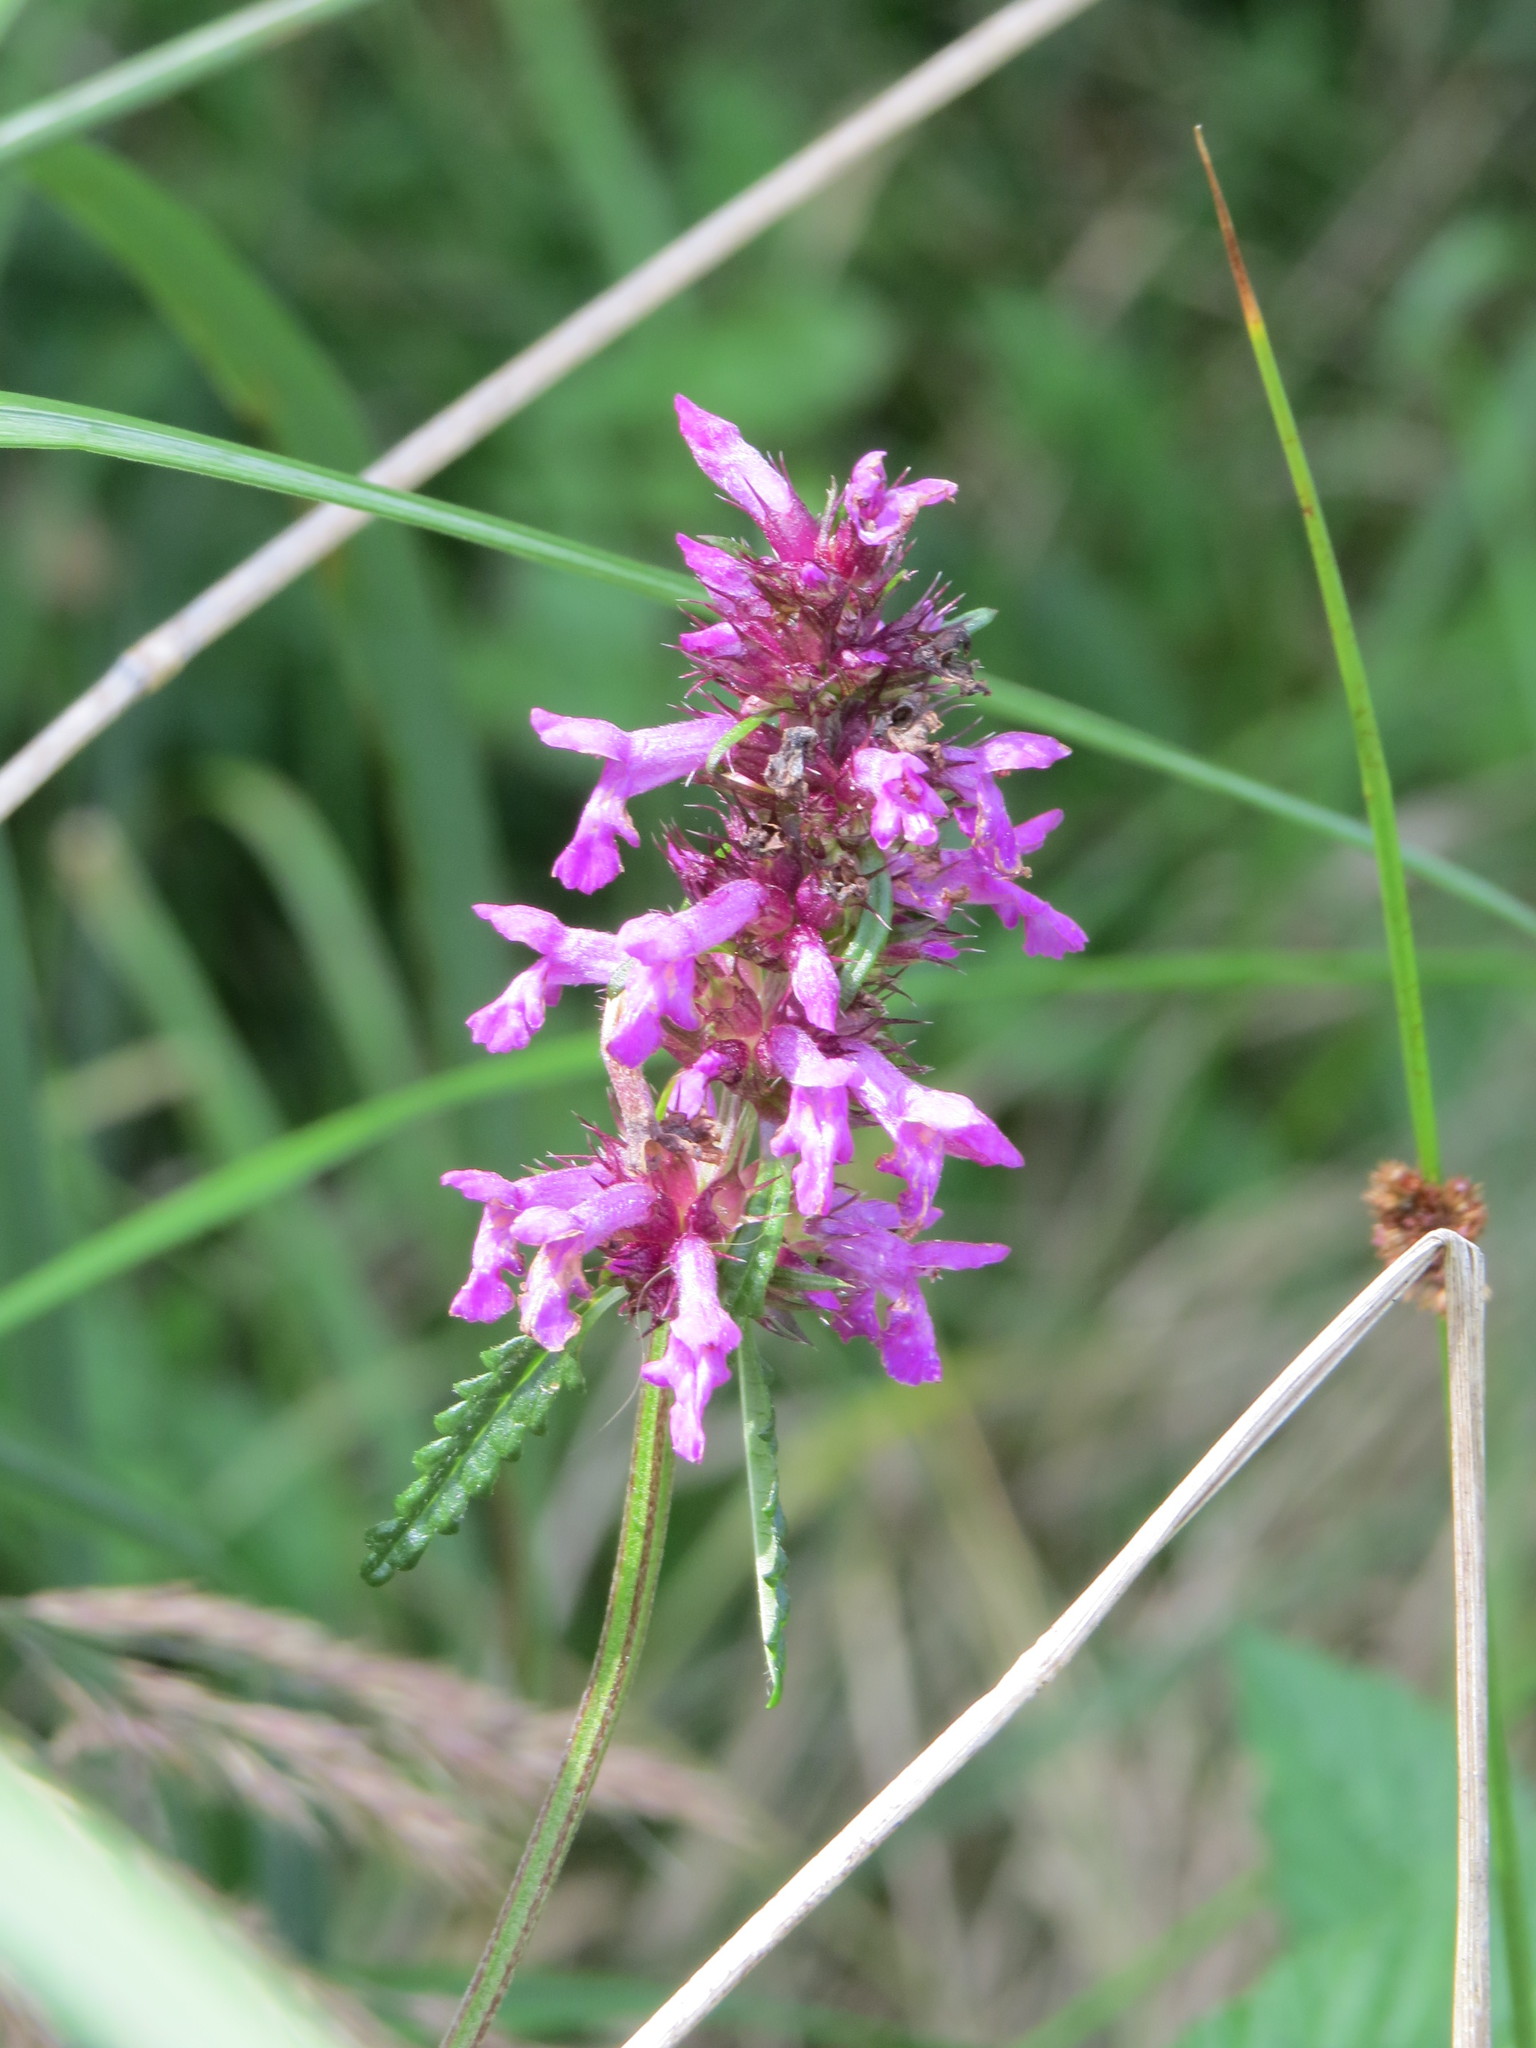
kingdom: Plantae
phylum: Tracheophyta
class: Magnoliopsida
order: Lamiales
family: Lamiaceae
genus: Betonica
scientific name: Betonica officinalis
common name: Bishop's-wort
